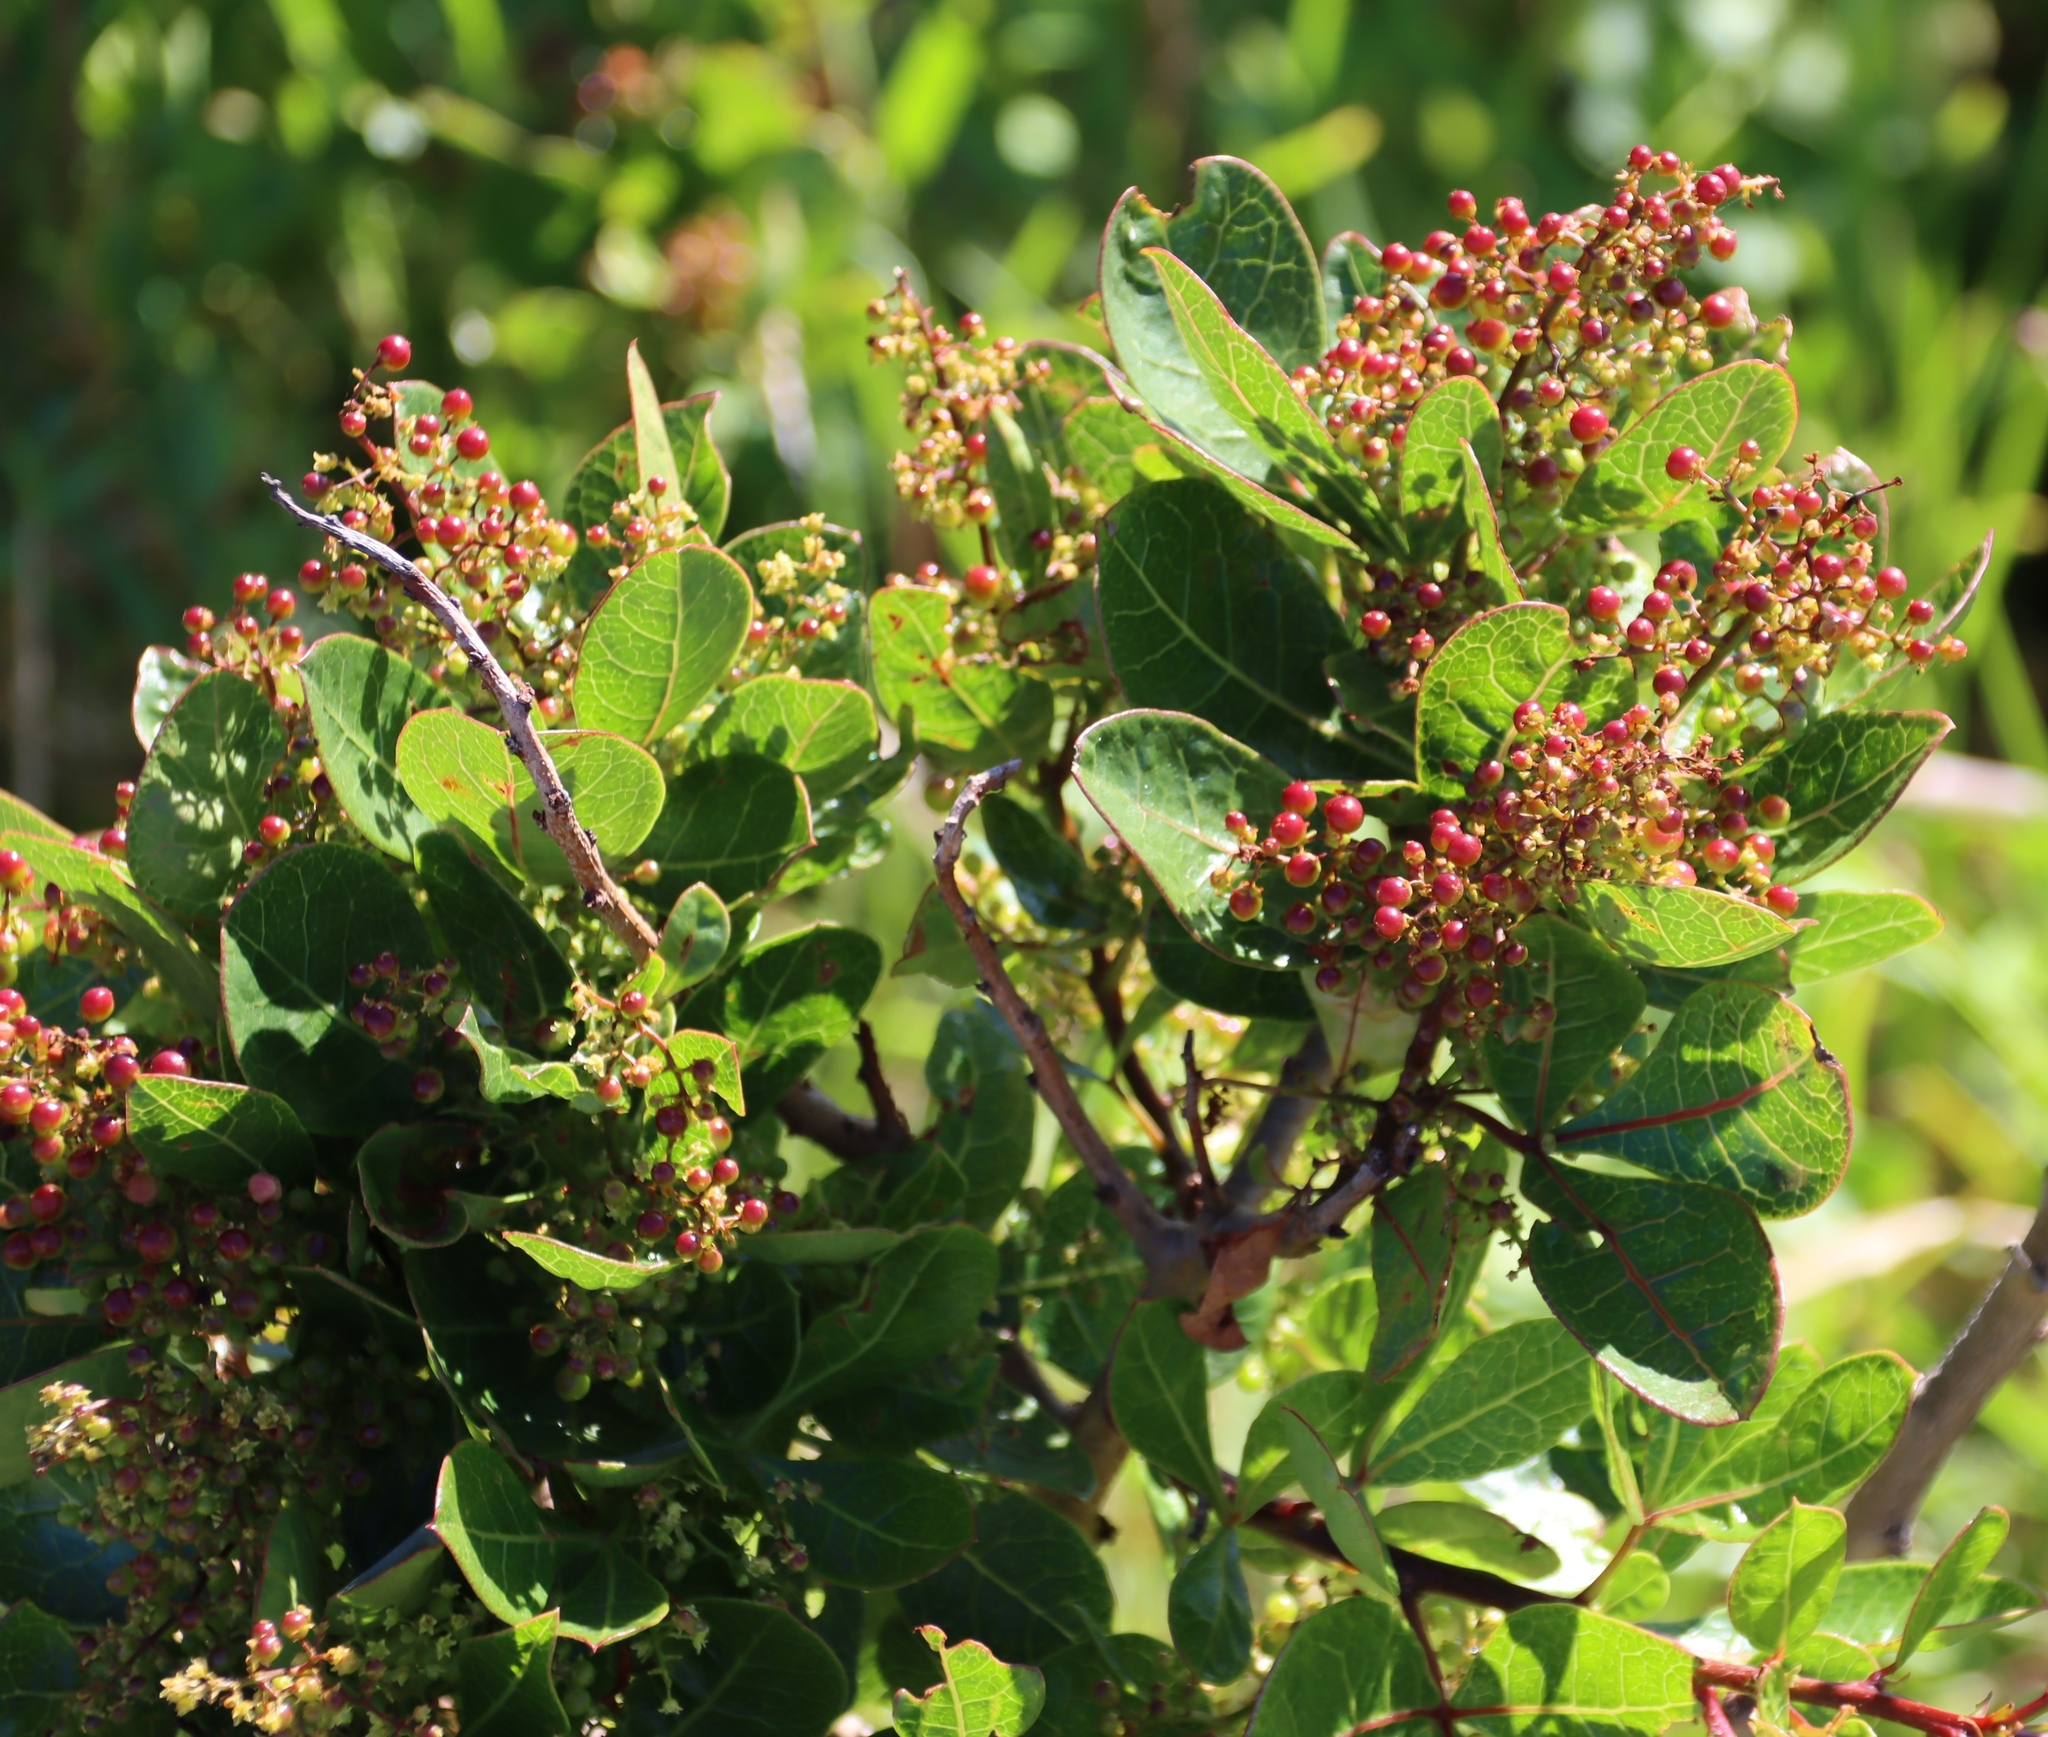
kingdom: Plantae
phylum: Tracheophyta
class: Magnoliopsida
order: Sapindales
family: Anacardiaceae
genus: Searsia
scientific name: Searsia laevigata
